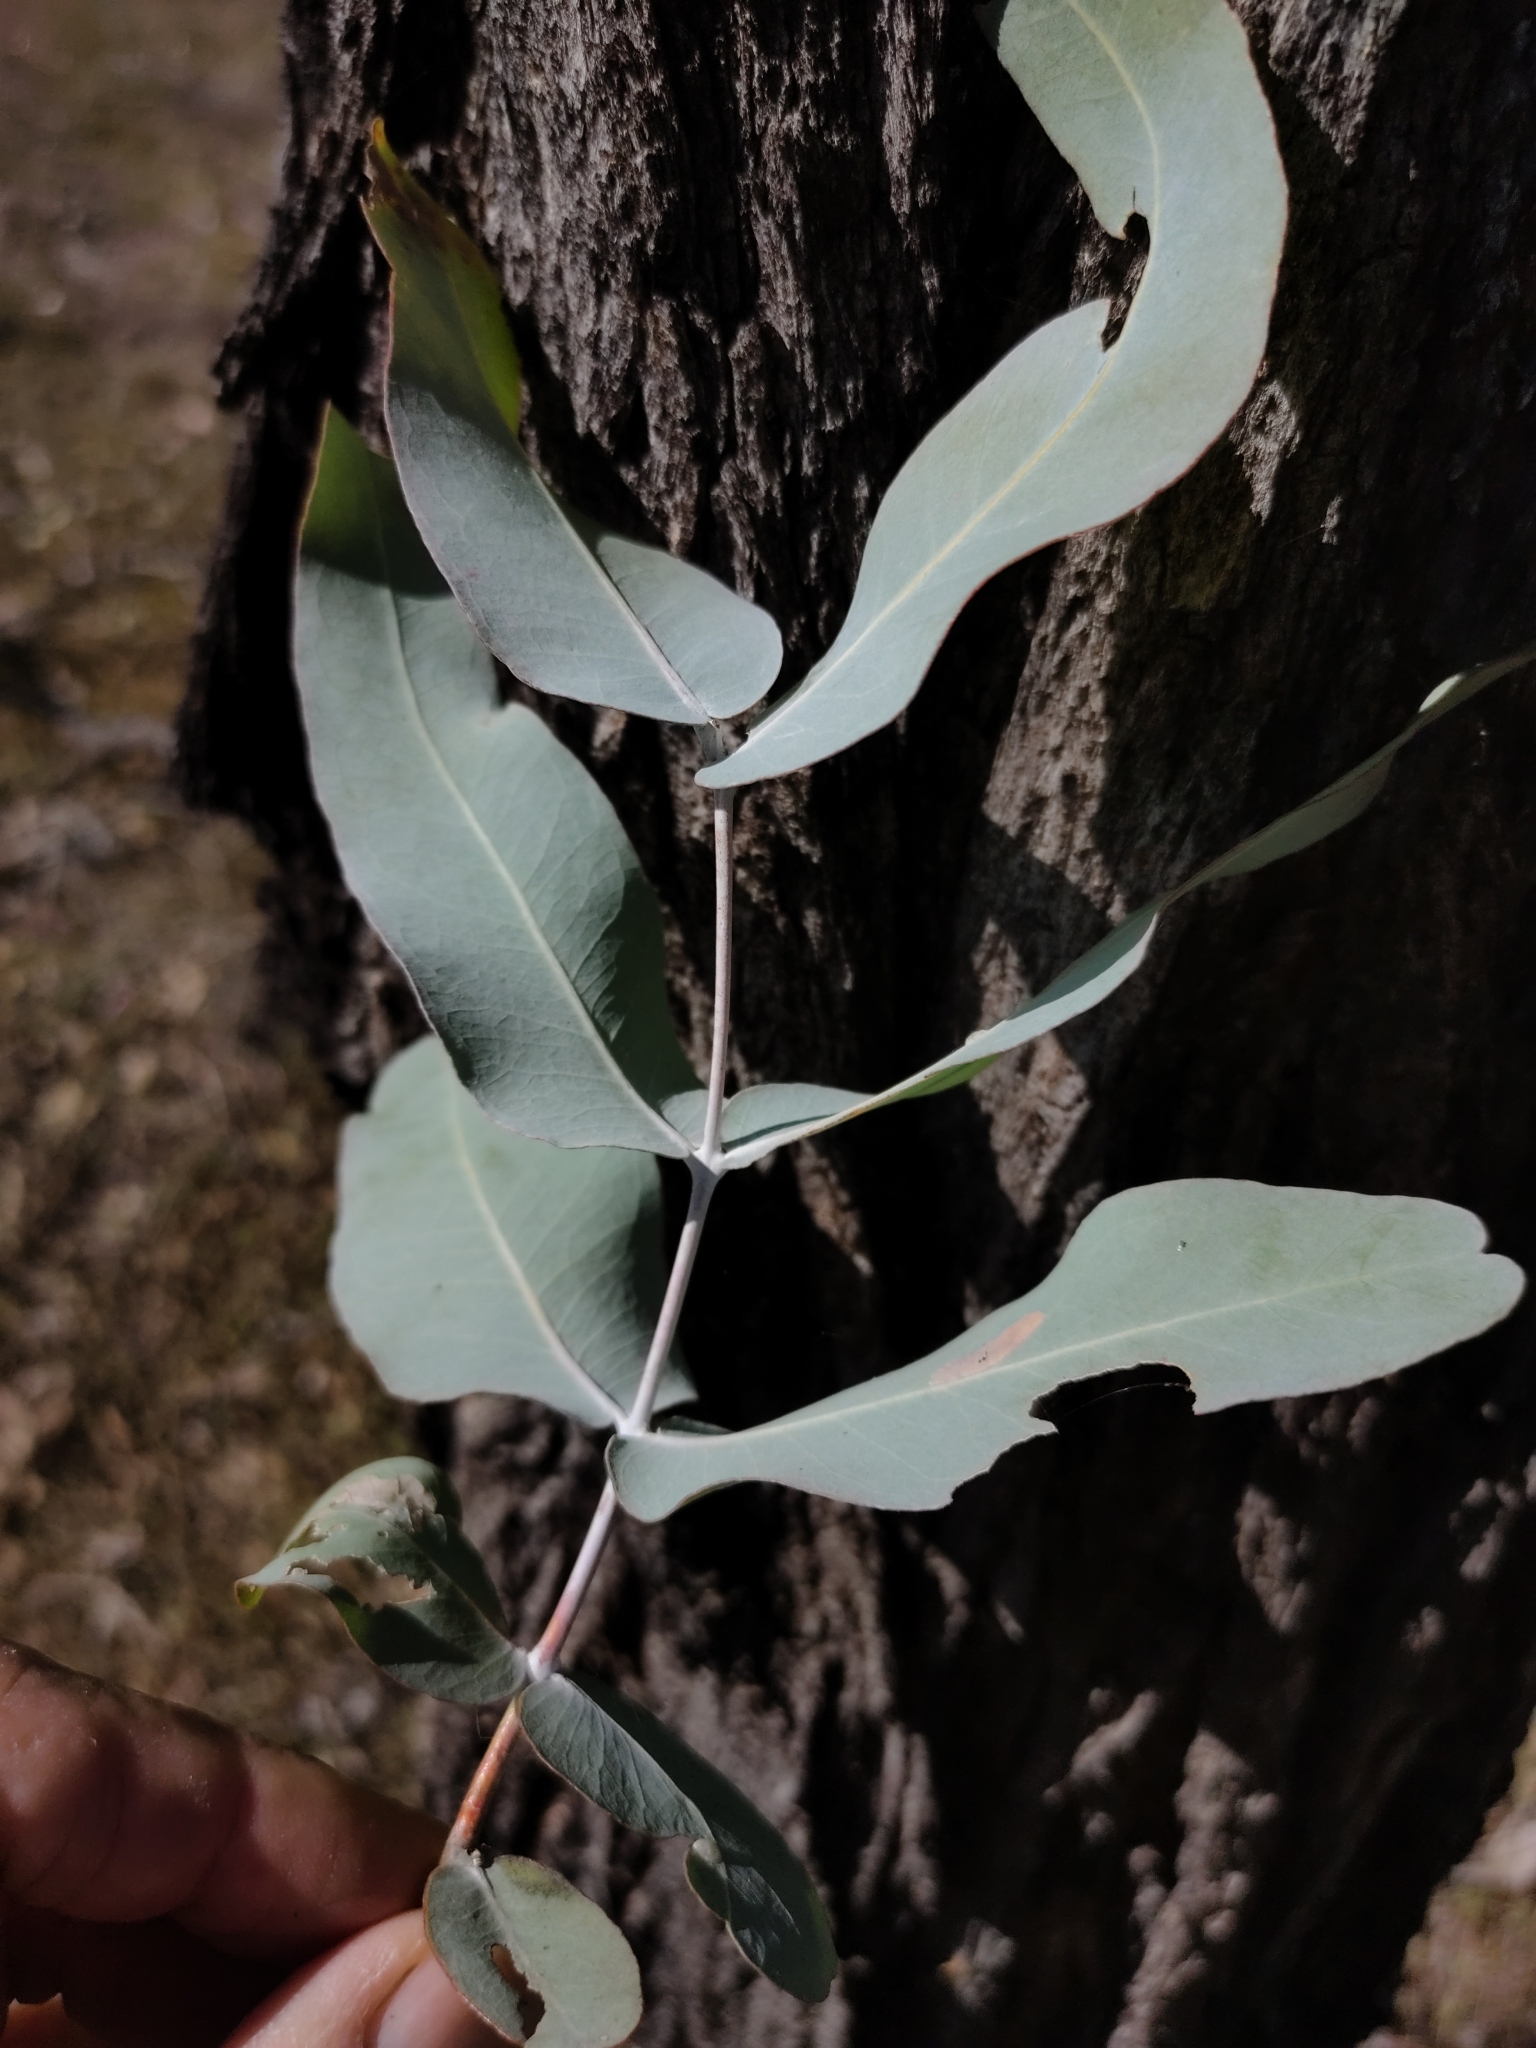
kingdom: Plantae
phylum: Tracheophyta
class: Magnoliopsida
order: Myrtales
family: Myrtaceae
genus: Eucalyptus
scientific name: Eucalyptus melanophloia
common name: Silver-leaved-ironbark
